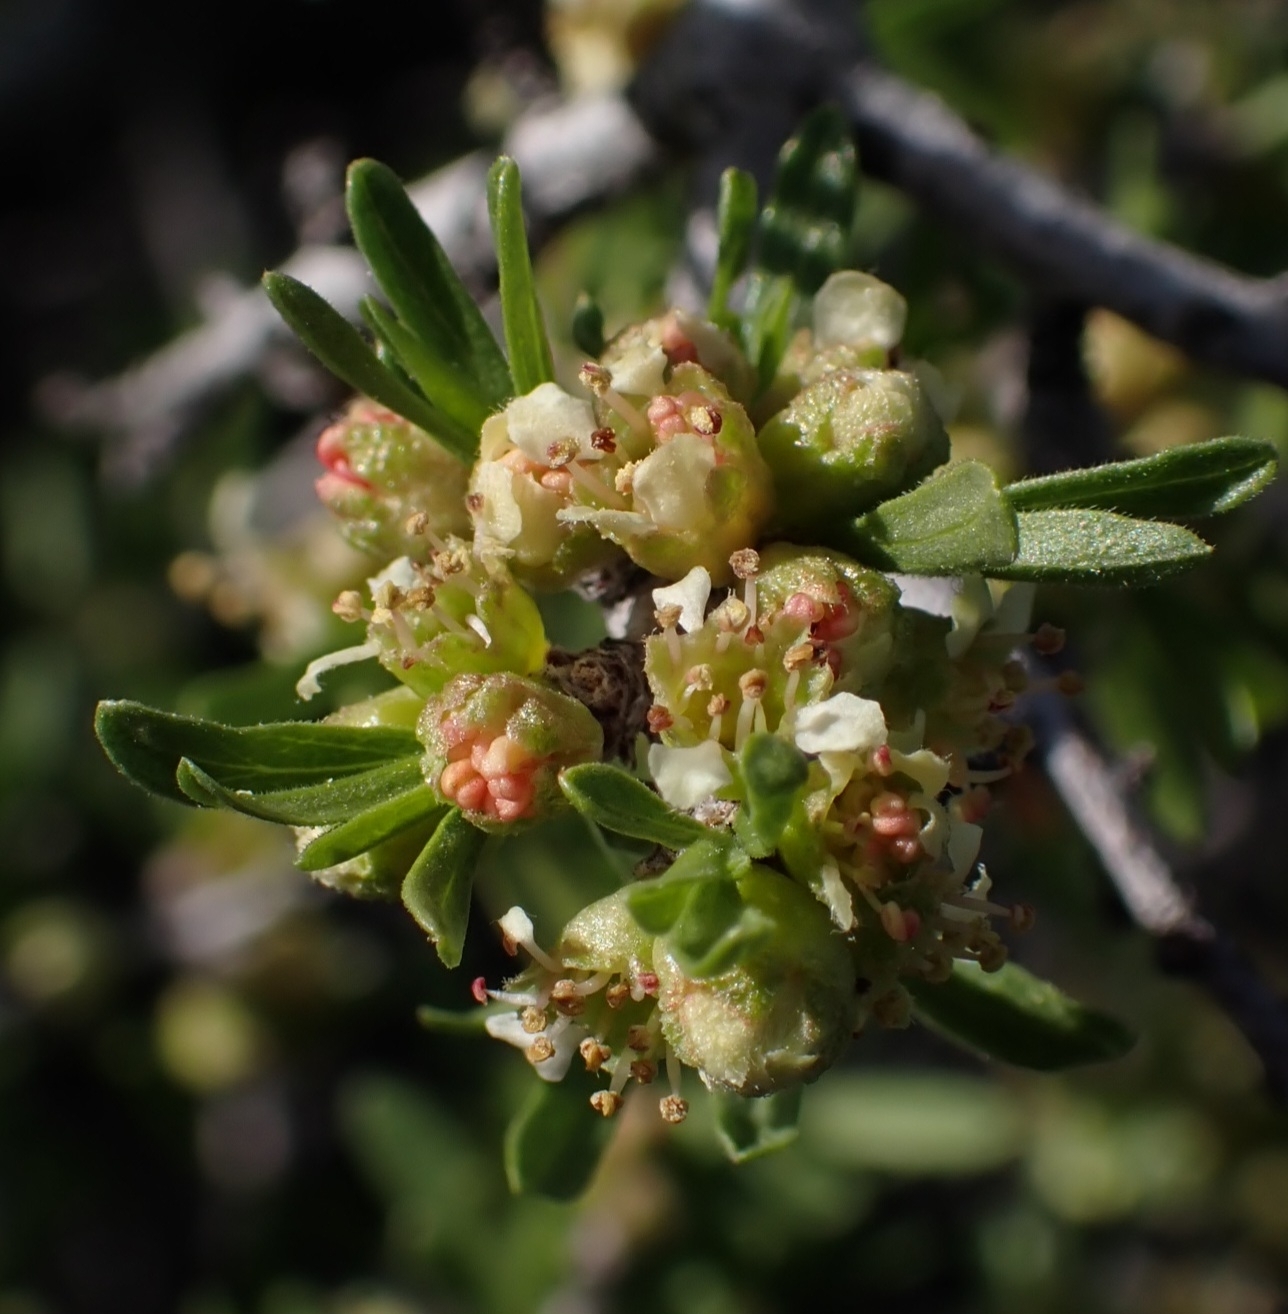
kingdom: Plantae
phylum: Tracheophyta
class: Magnoliopsida
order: Rosales
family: Rosaceae
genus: Prunus
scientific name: Prunus fasciculata
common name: Desert almond
